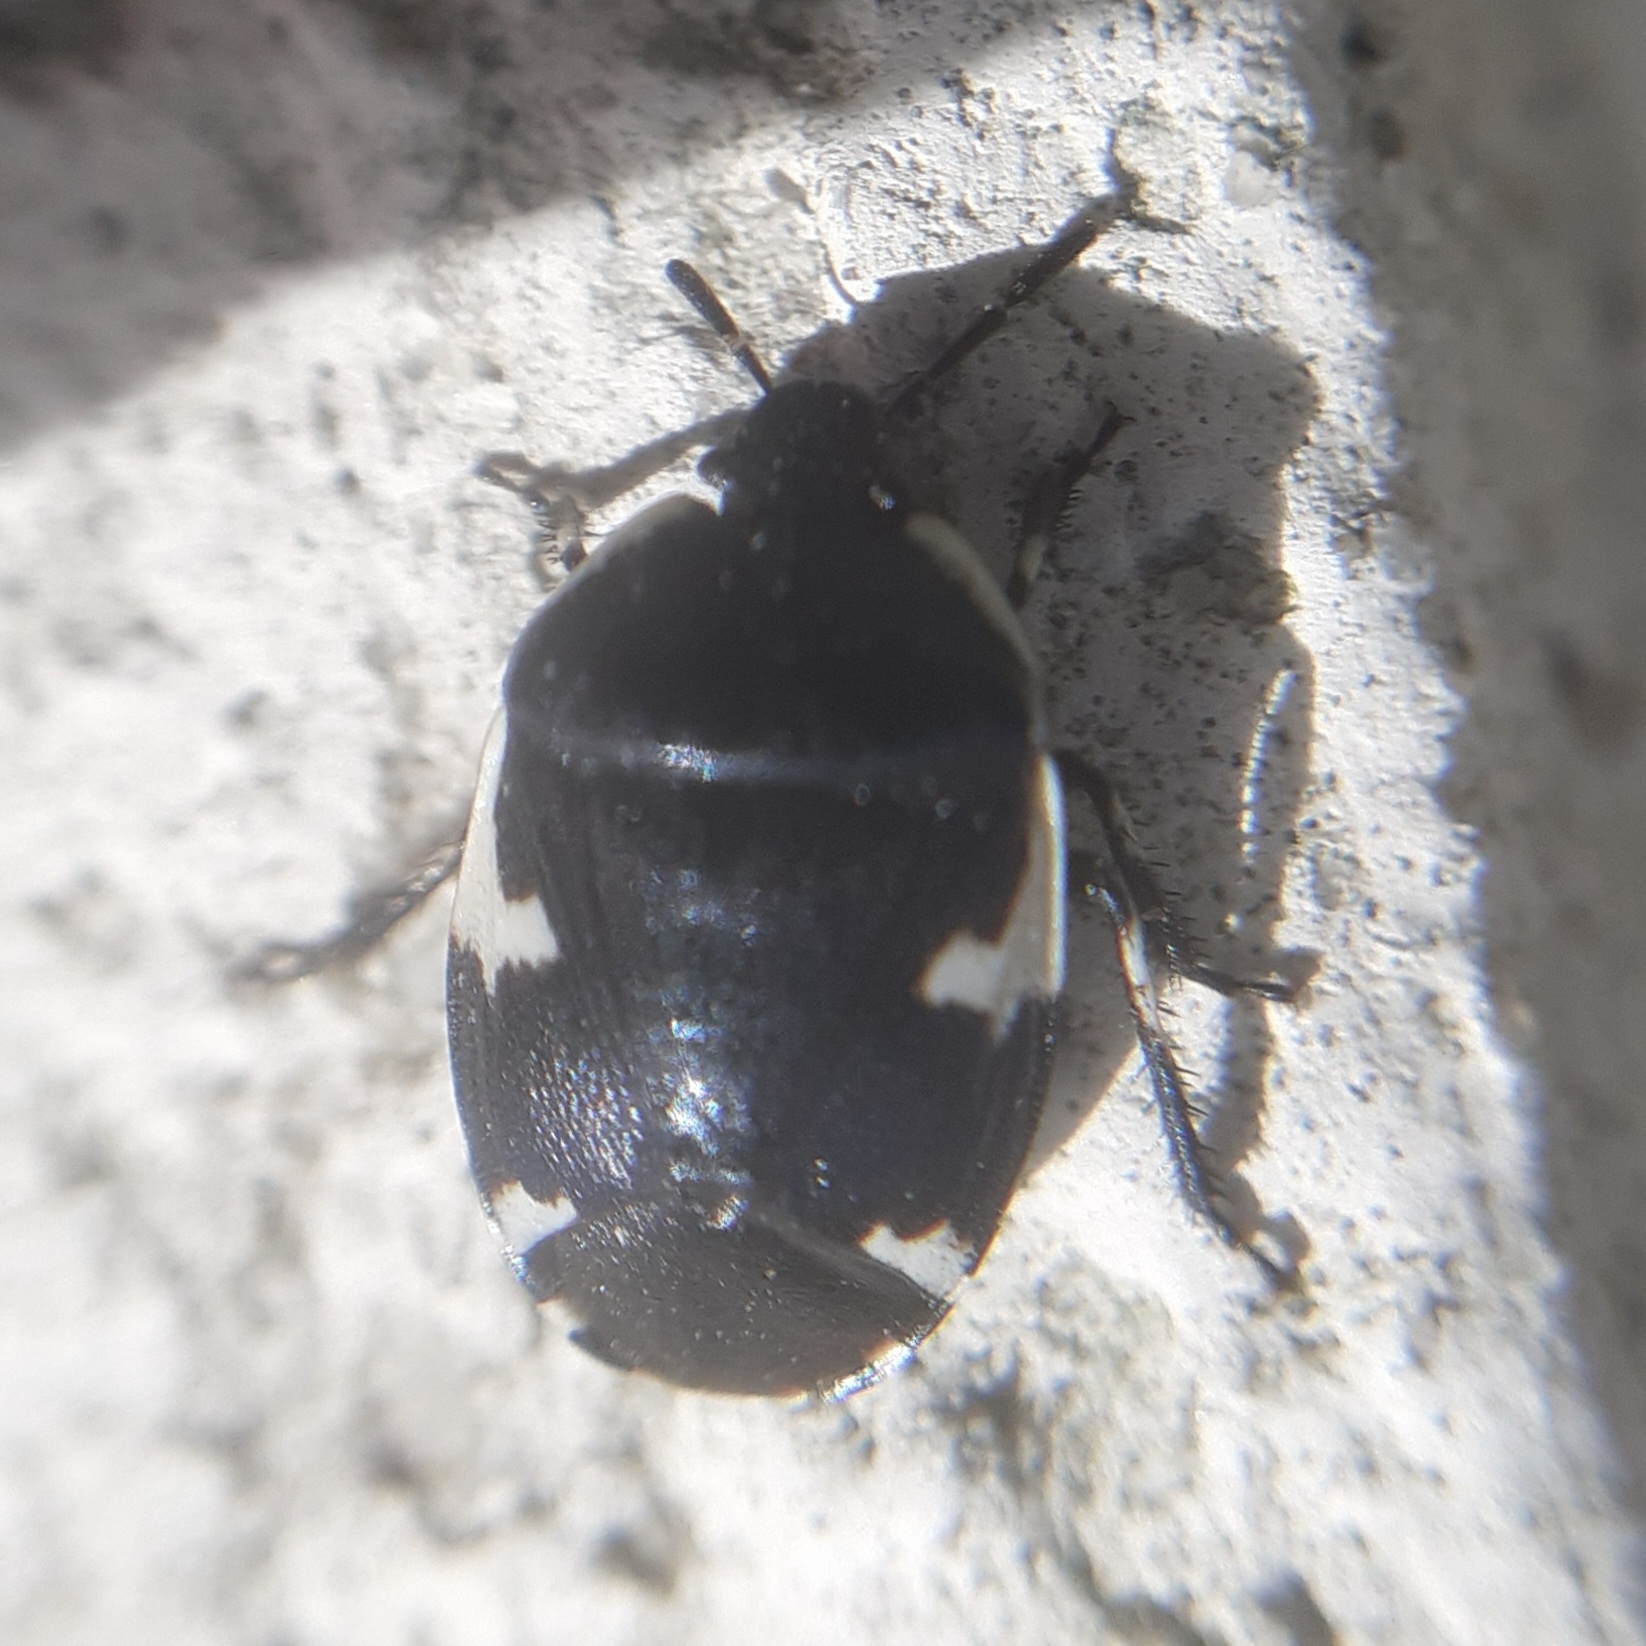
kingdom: Animalia
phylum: Arthropoda
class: Insecta
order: Hemiptera
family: Cydnidae
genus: Tritomegas
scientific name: Tritomegas sexmaculatus
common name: Rambur's pied shieldbug
